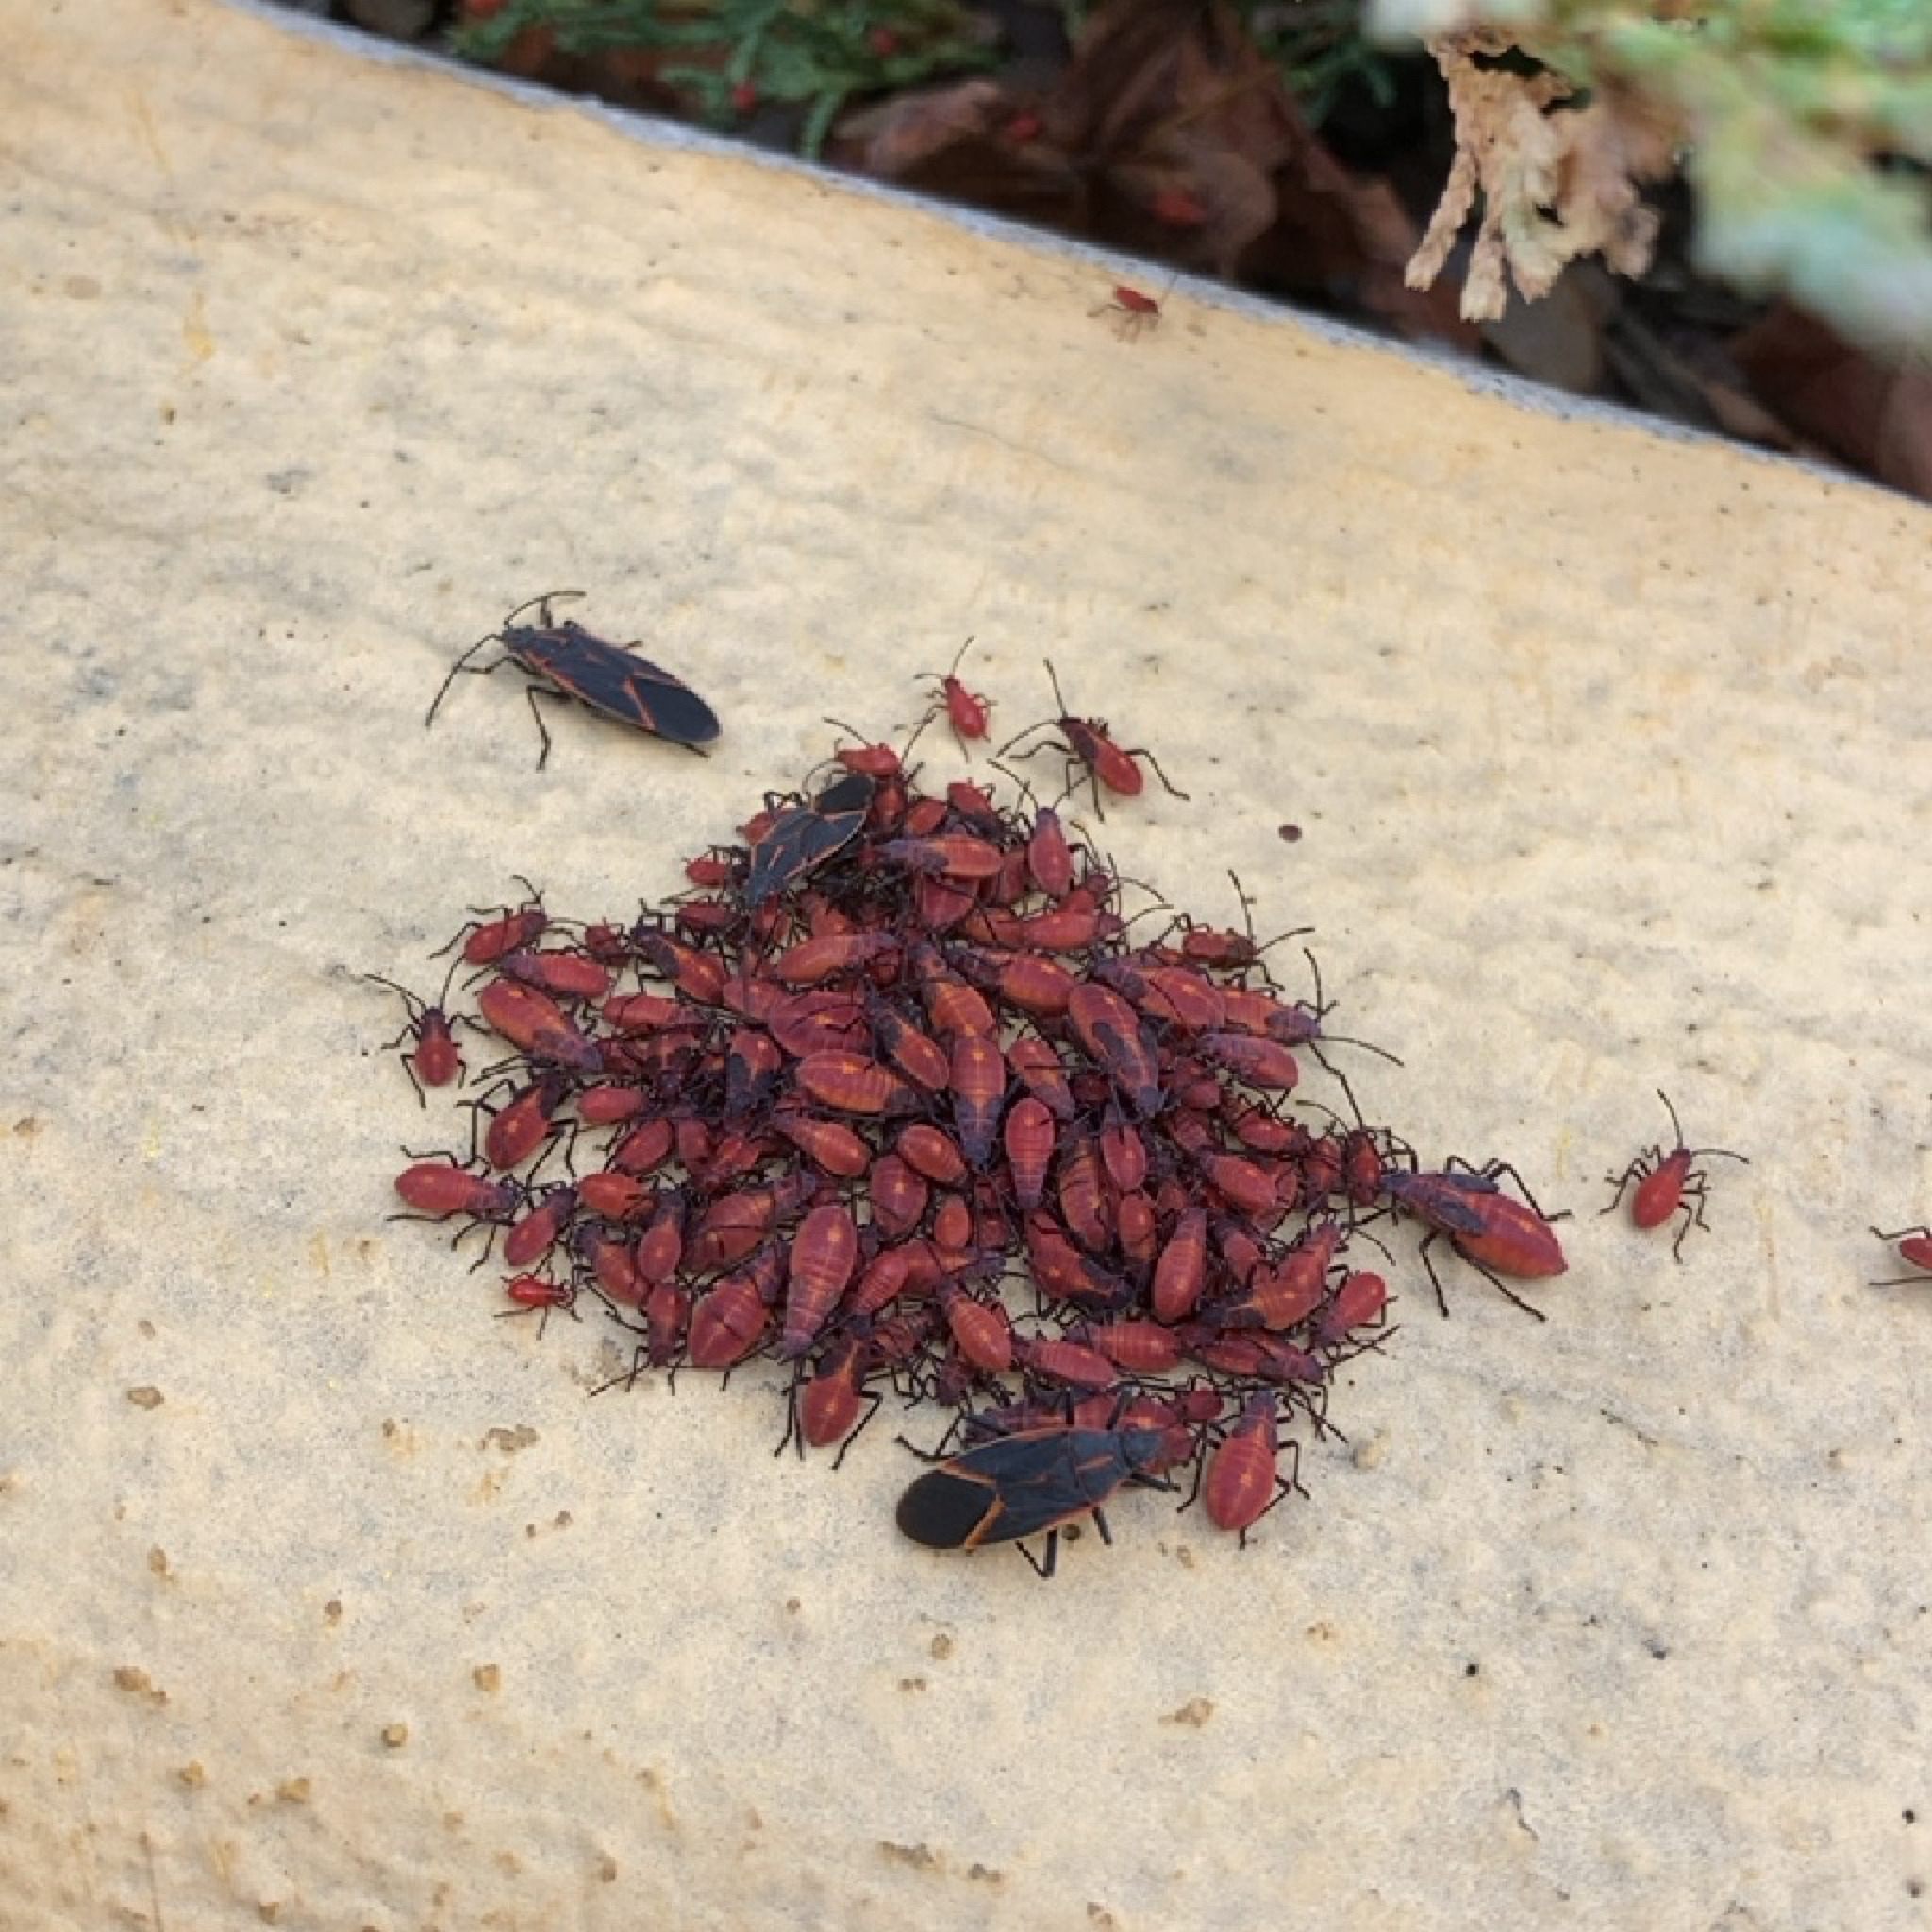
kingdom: Animalia
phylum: Arthropoda
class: Insecta
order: Hemiptera
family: Rhopalidae
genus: Boisea
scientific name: Boisea trivittata
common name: Boxelder bug
